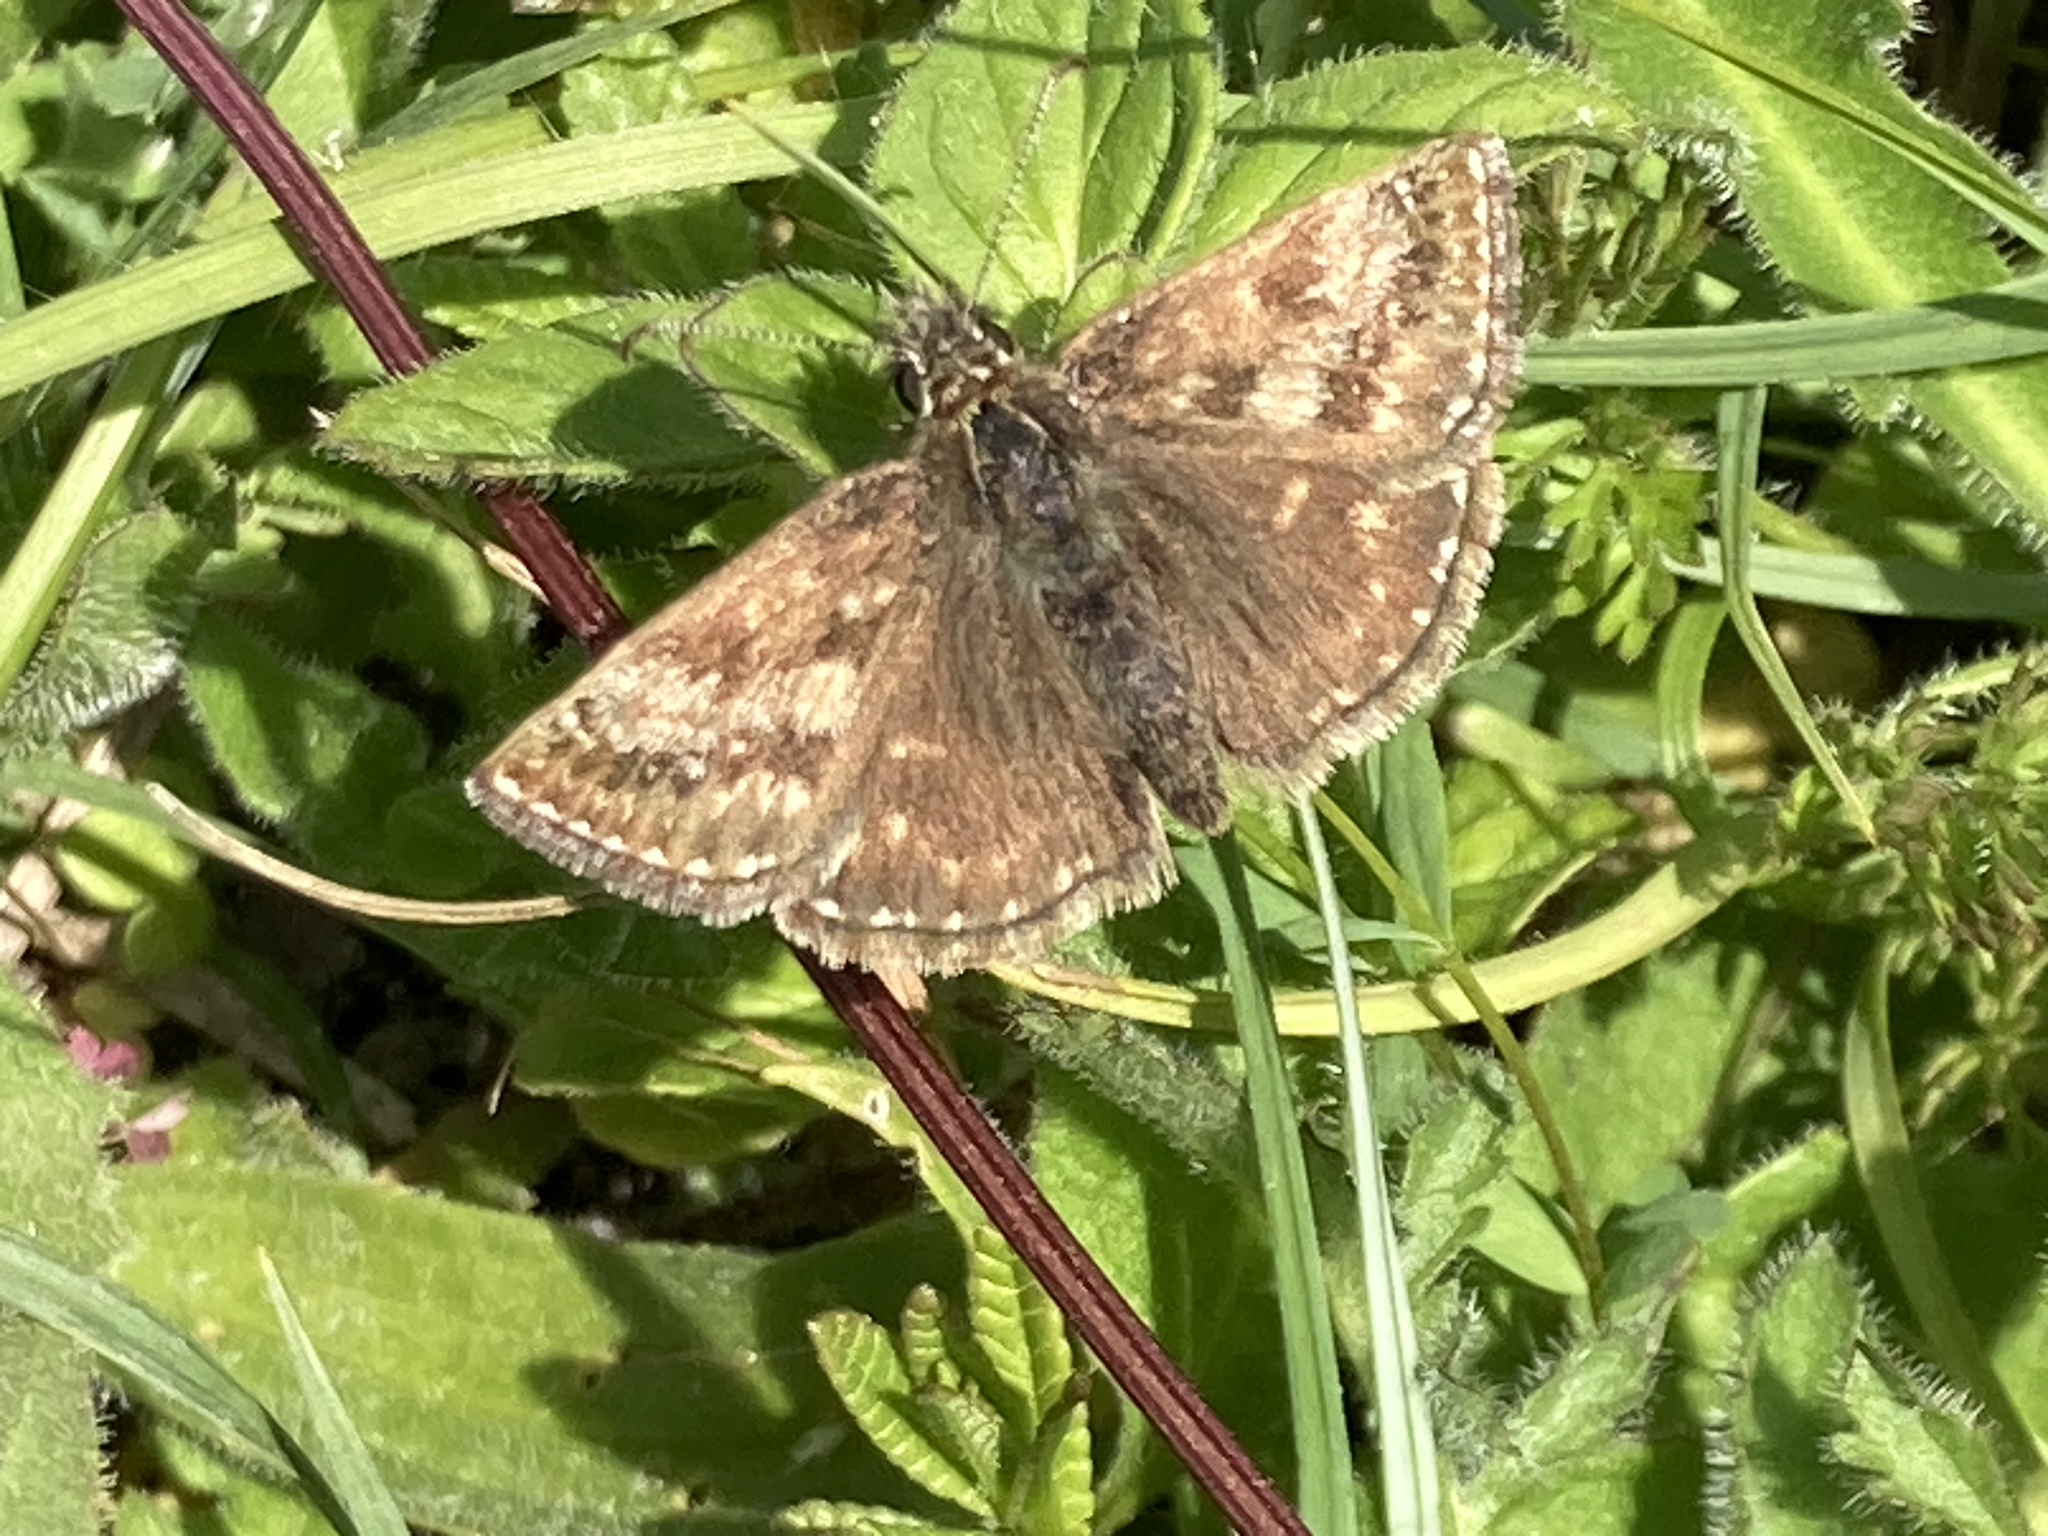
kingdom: Animalia
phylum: Arthropoda
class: Insecta
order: Lepidoptera
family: Hesperiidae
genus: Erynnis
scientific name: Erynnis tages
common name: Dingy skipper
